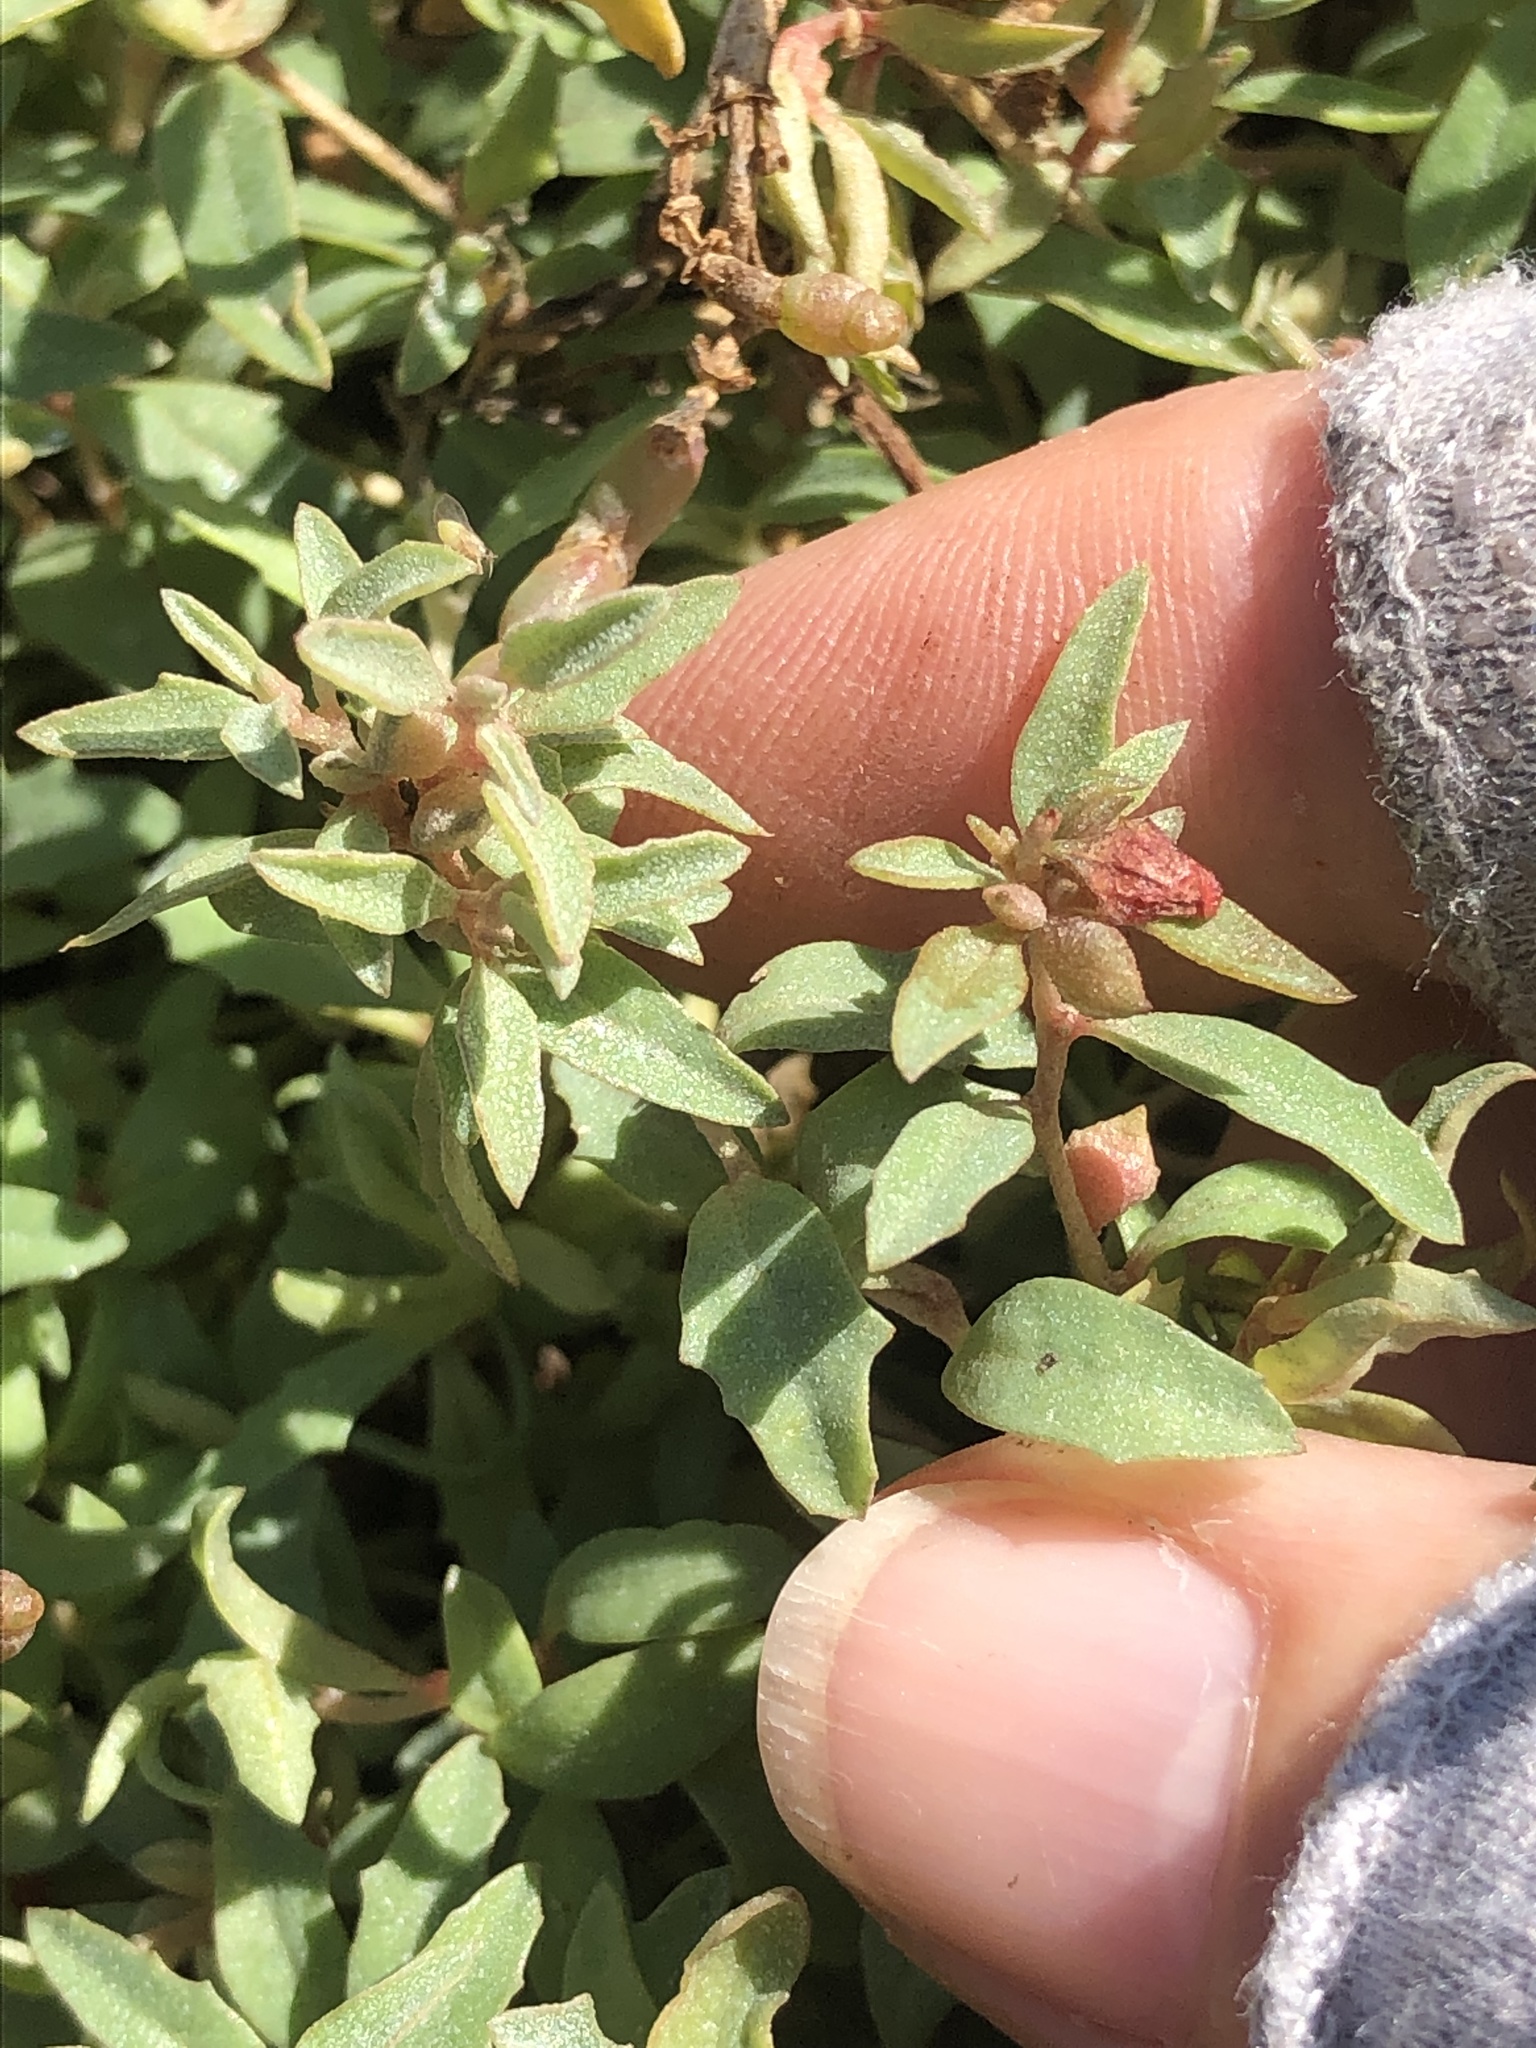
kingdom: Plantae
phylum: Tracheophyta
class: Magnoliopsida
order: Caryophyllales
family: Amaranthaceae
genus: Atriplex
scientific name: Atriplex semibaccata
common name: Australian saltbush
